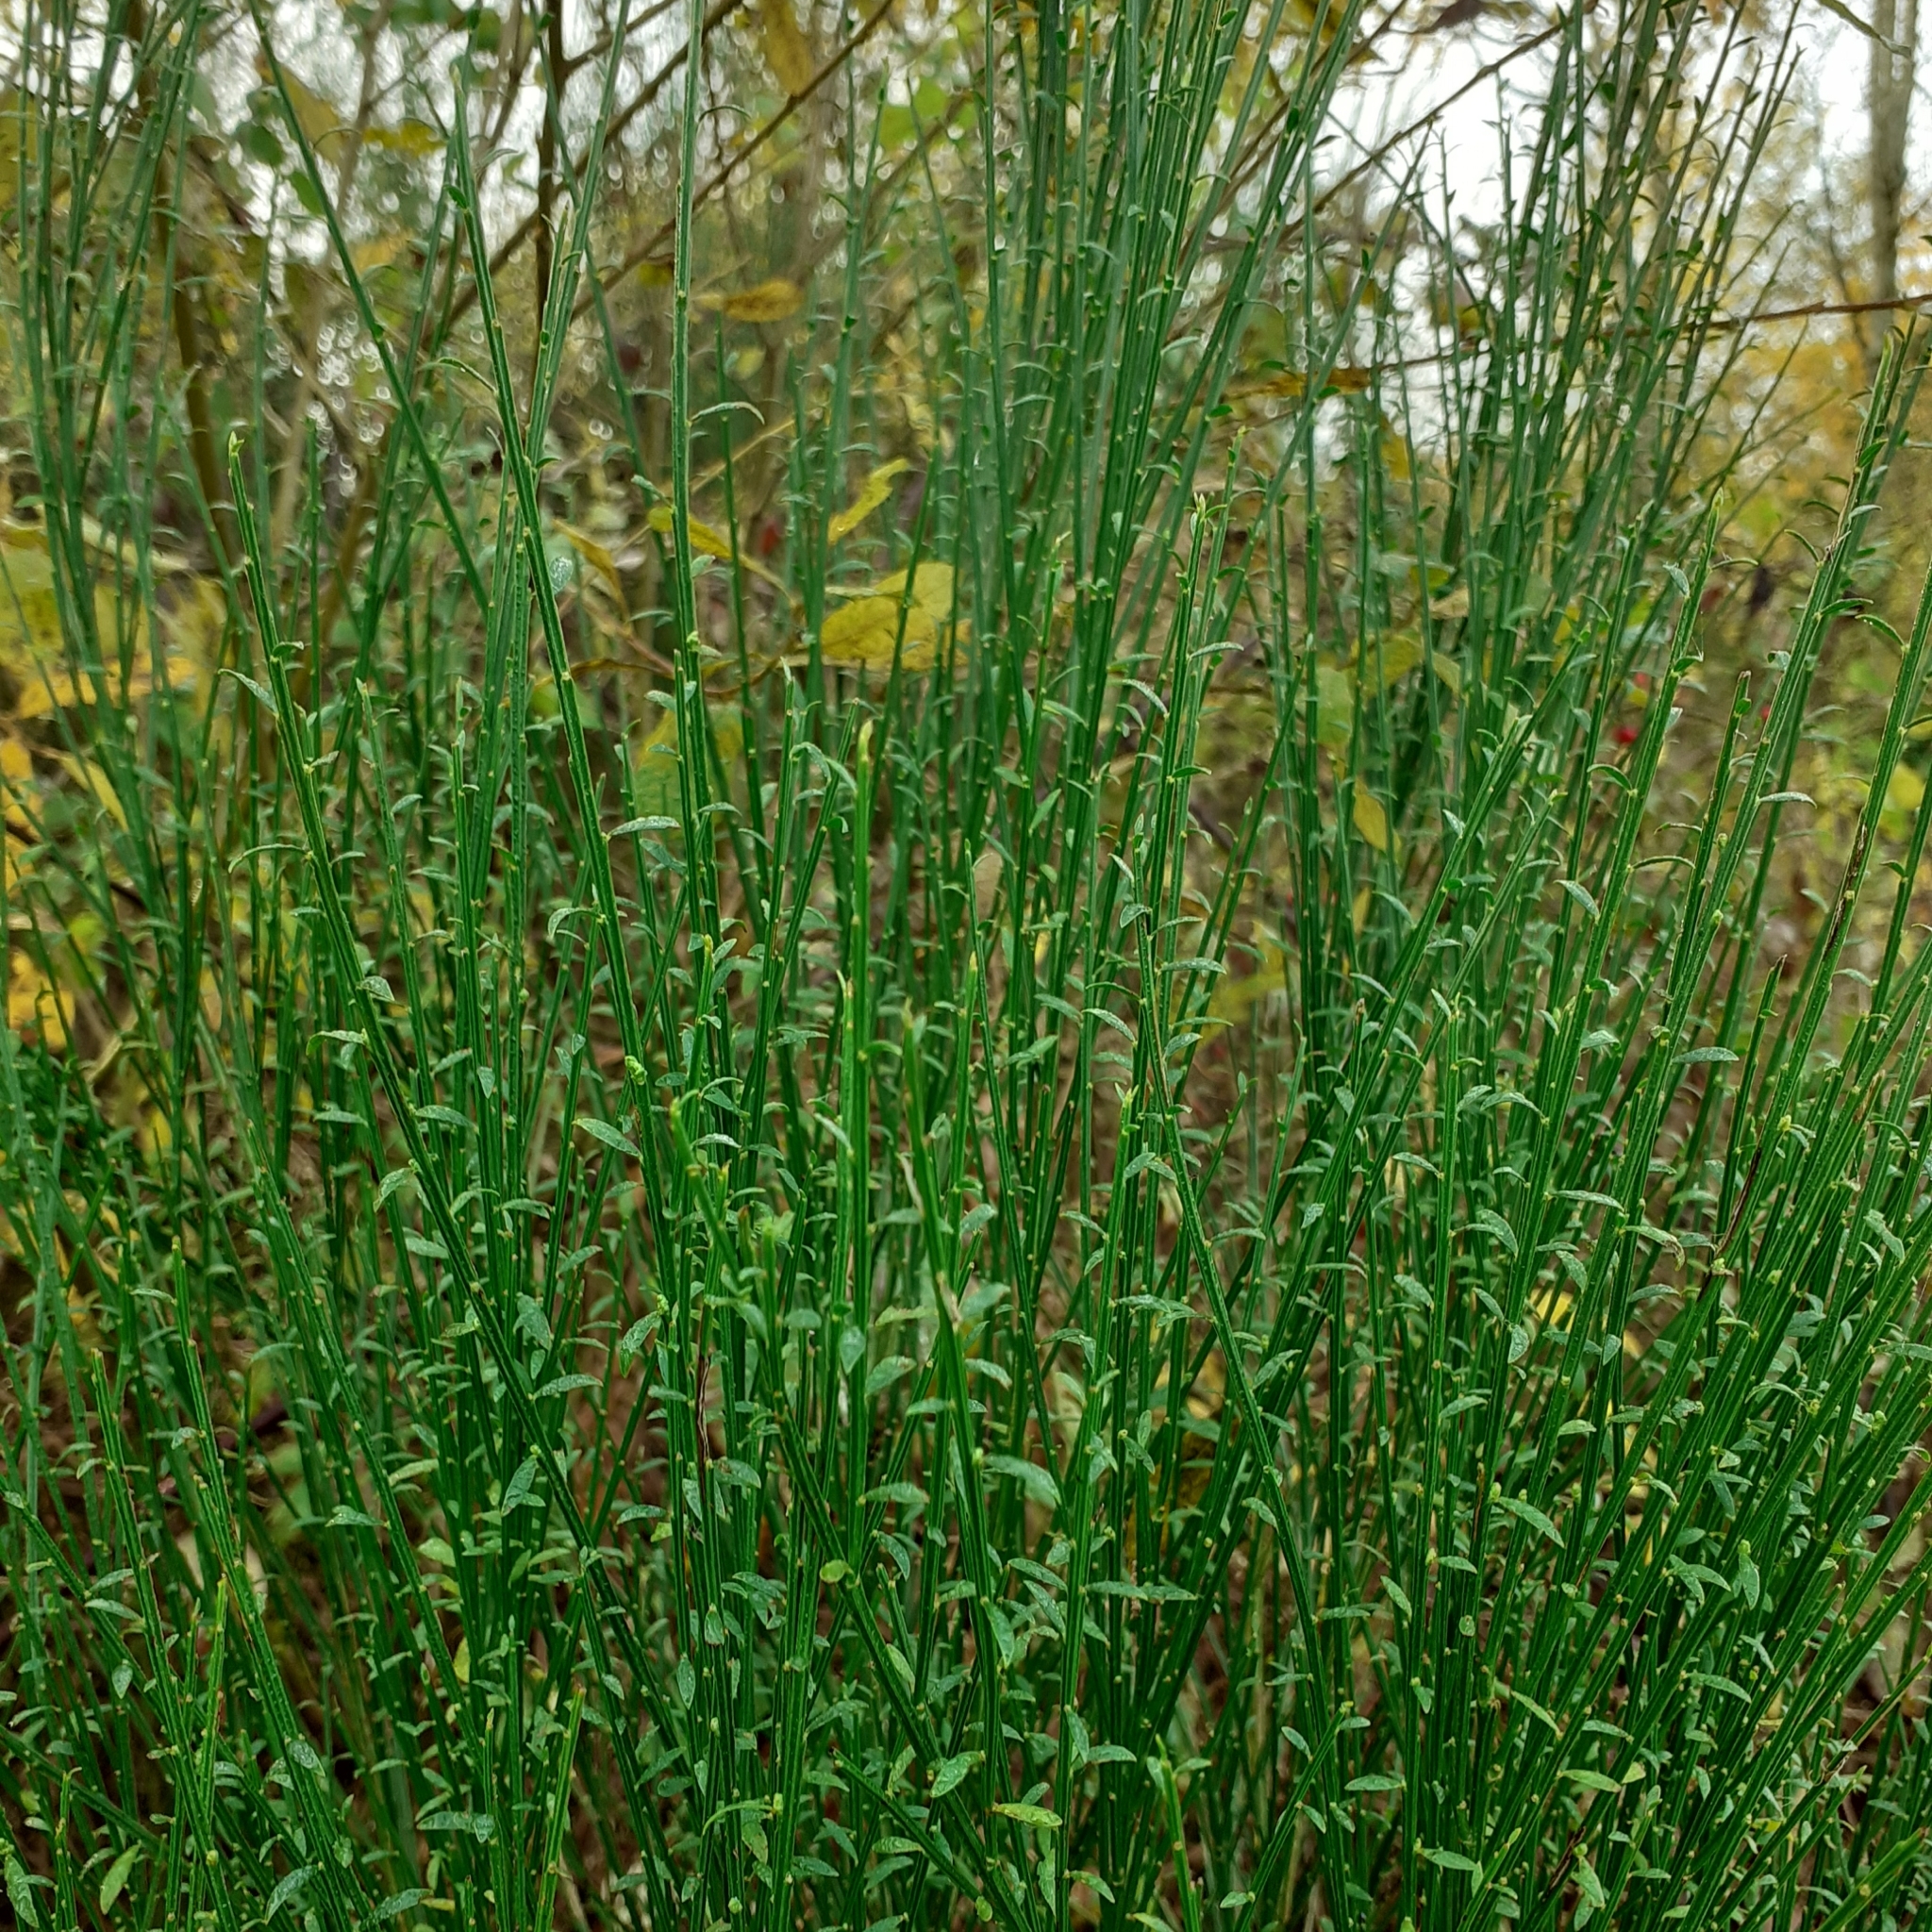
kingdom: Plantae
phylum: Tracheophyta
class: Magnoliopsida
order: Fabales
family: Fabaceae
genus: Cytisus
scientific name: Cytisus scoparius
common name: Scotch broom
